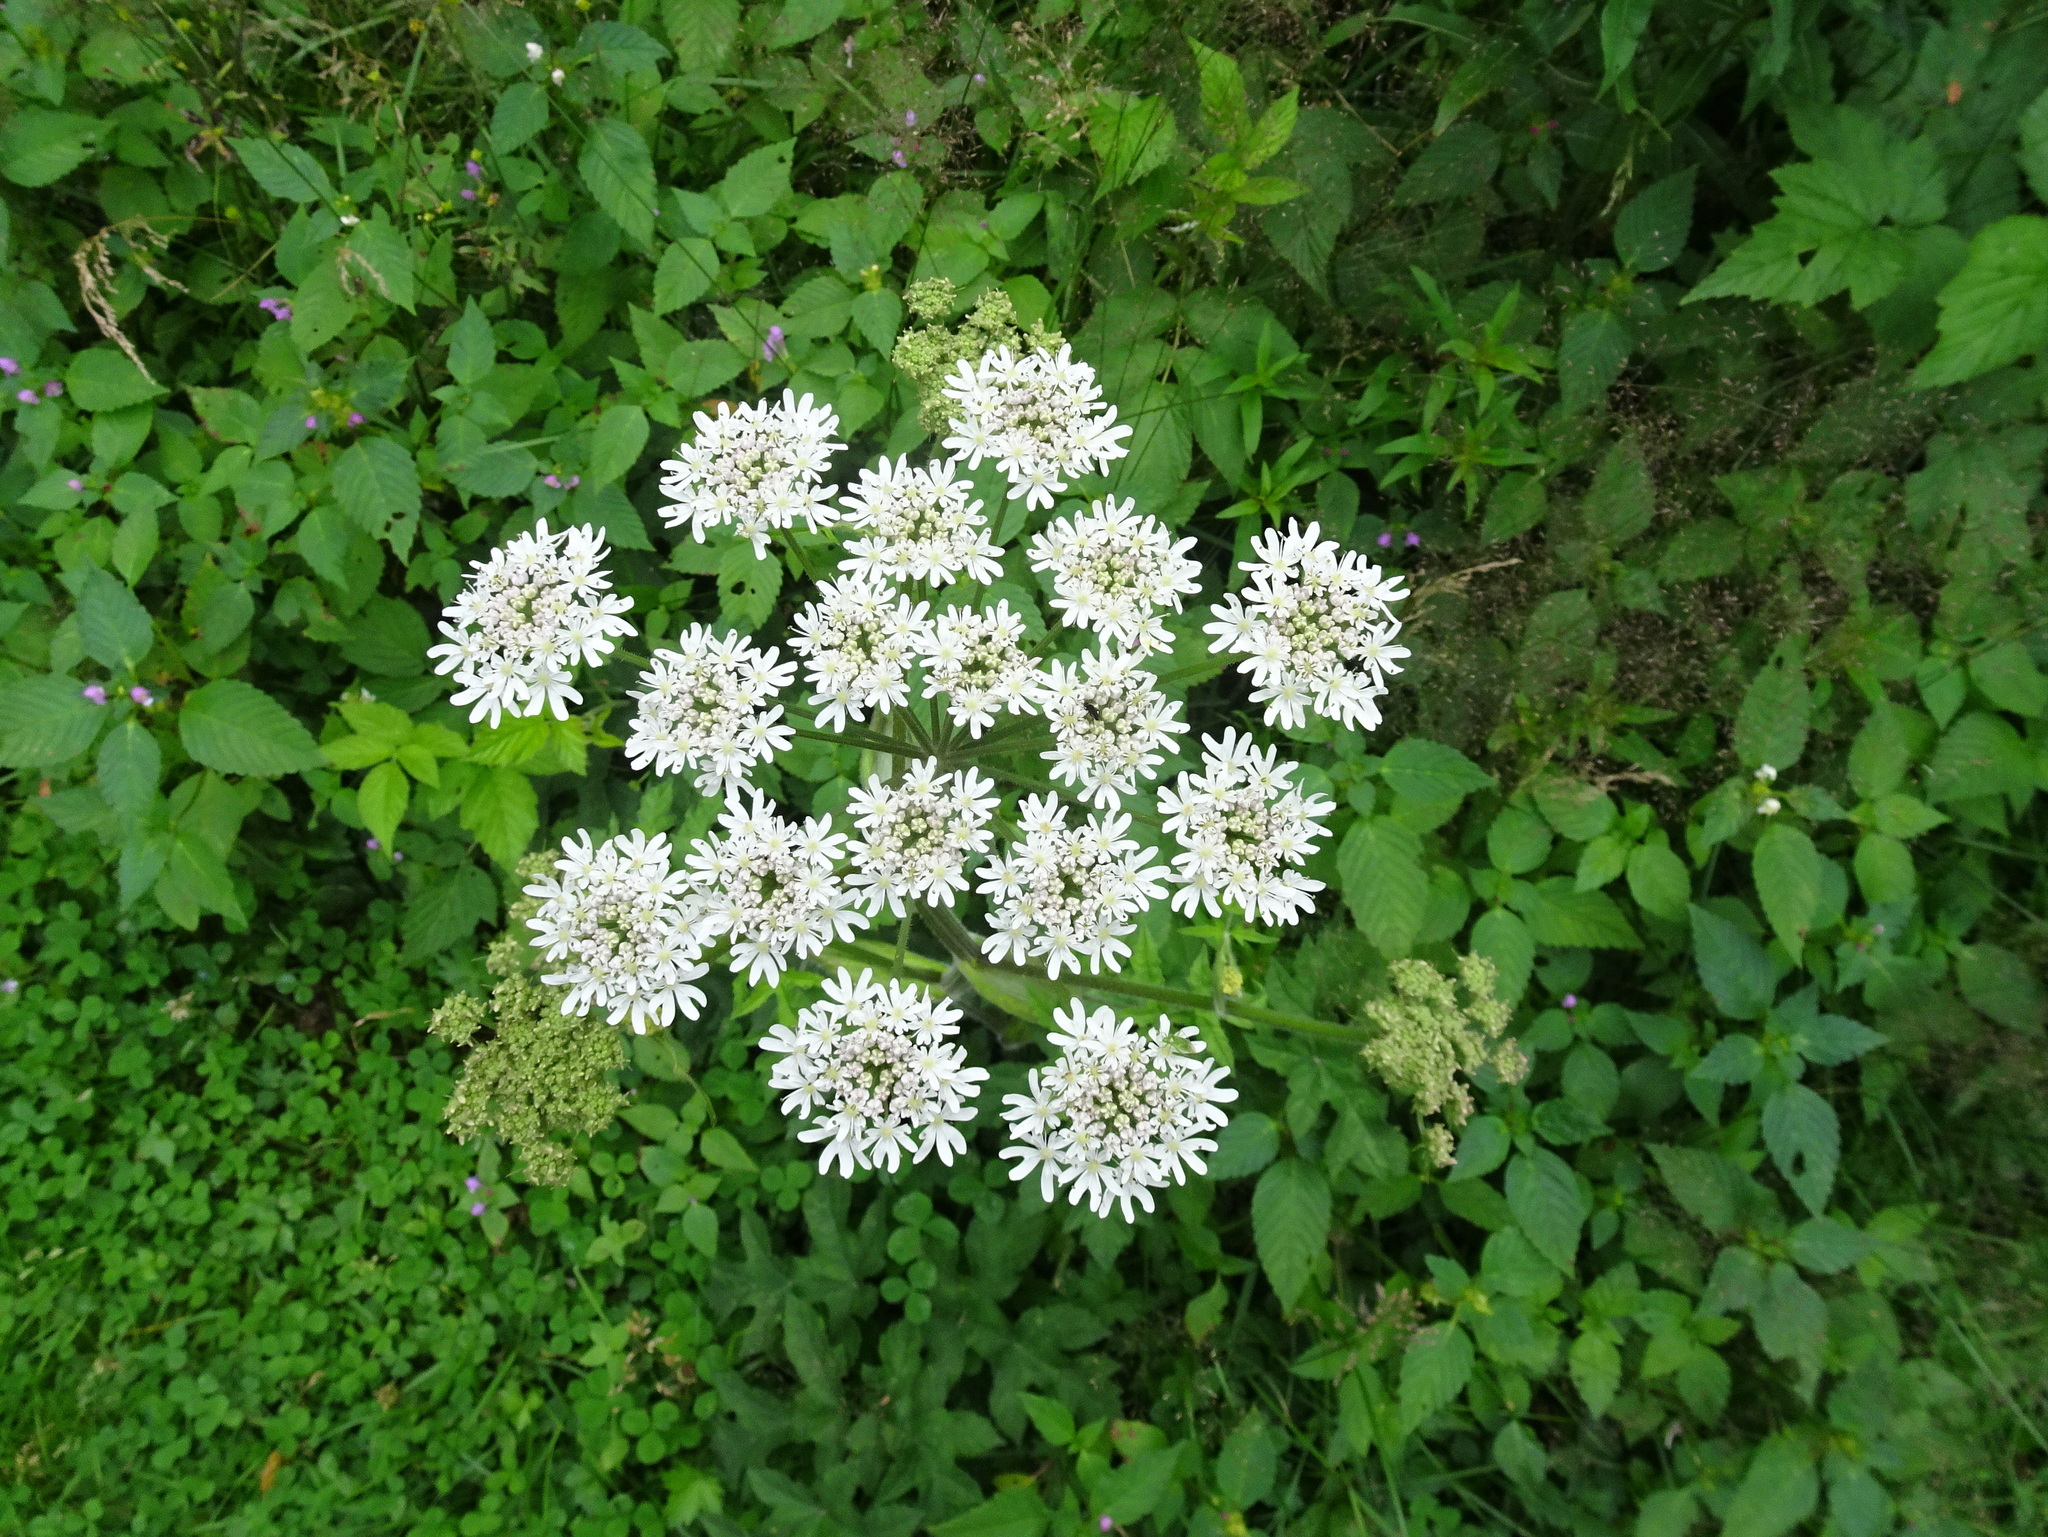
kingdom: Plantae
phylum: Tracheophyta
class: Magnoliopsida
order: Apiales
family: Apiaceae
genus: Heracleum
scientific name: Heracleum sphondylium
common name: Hogweed
